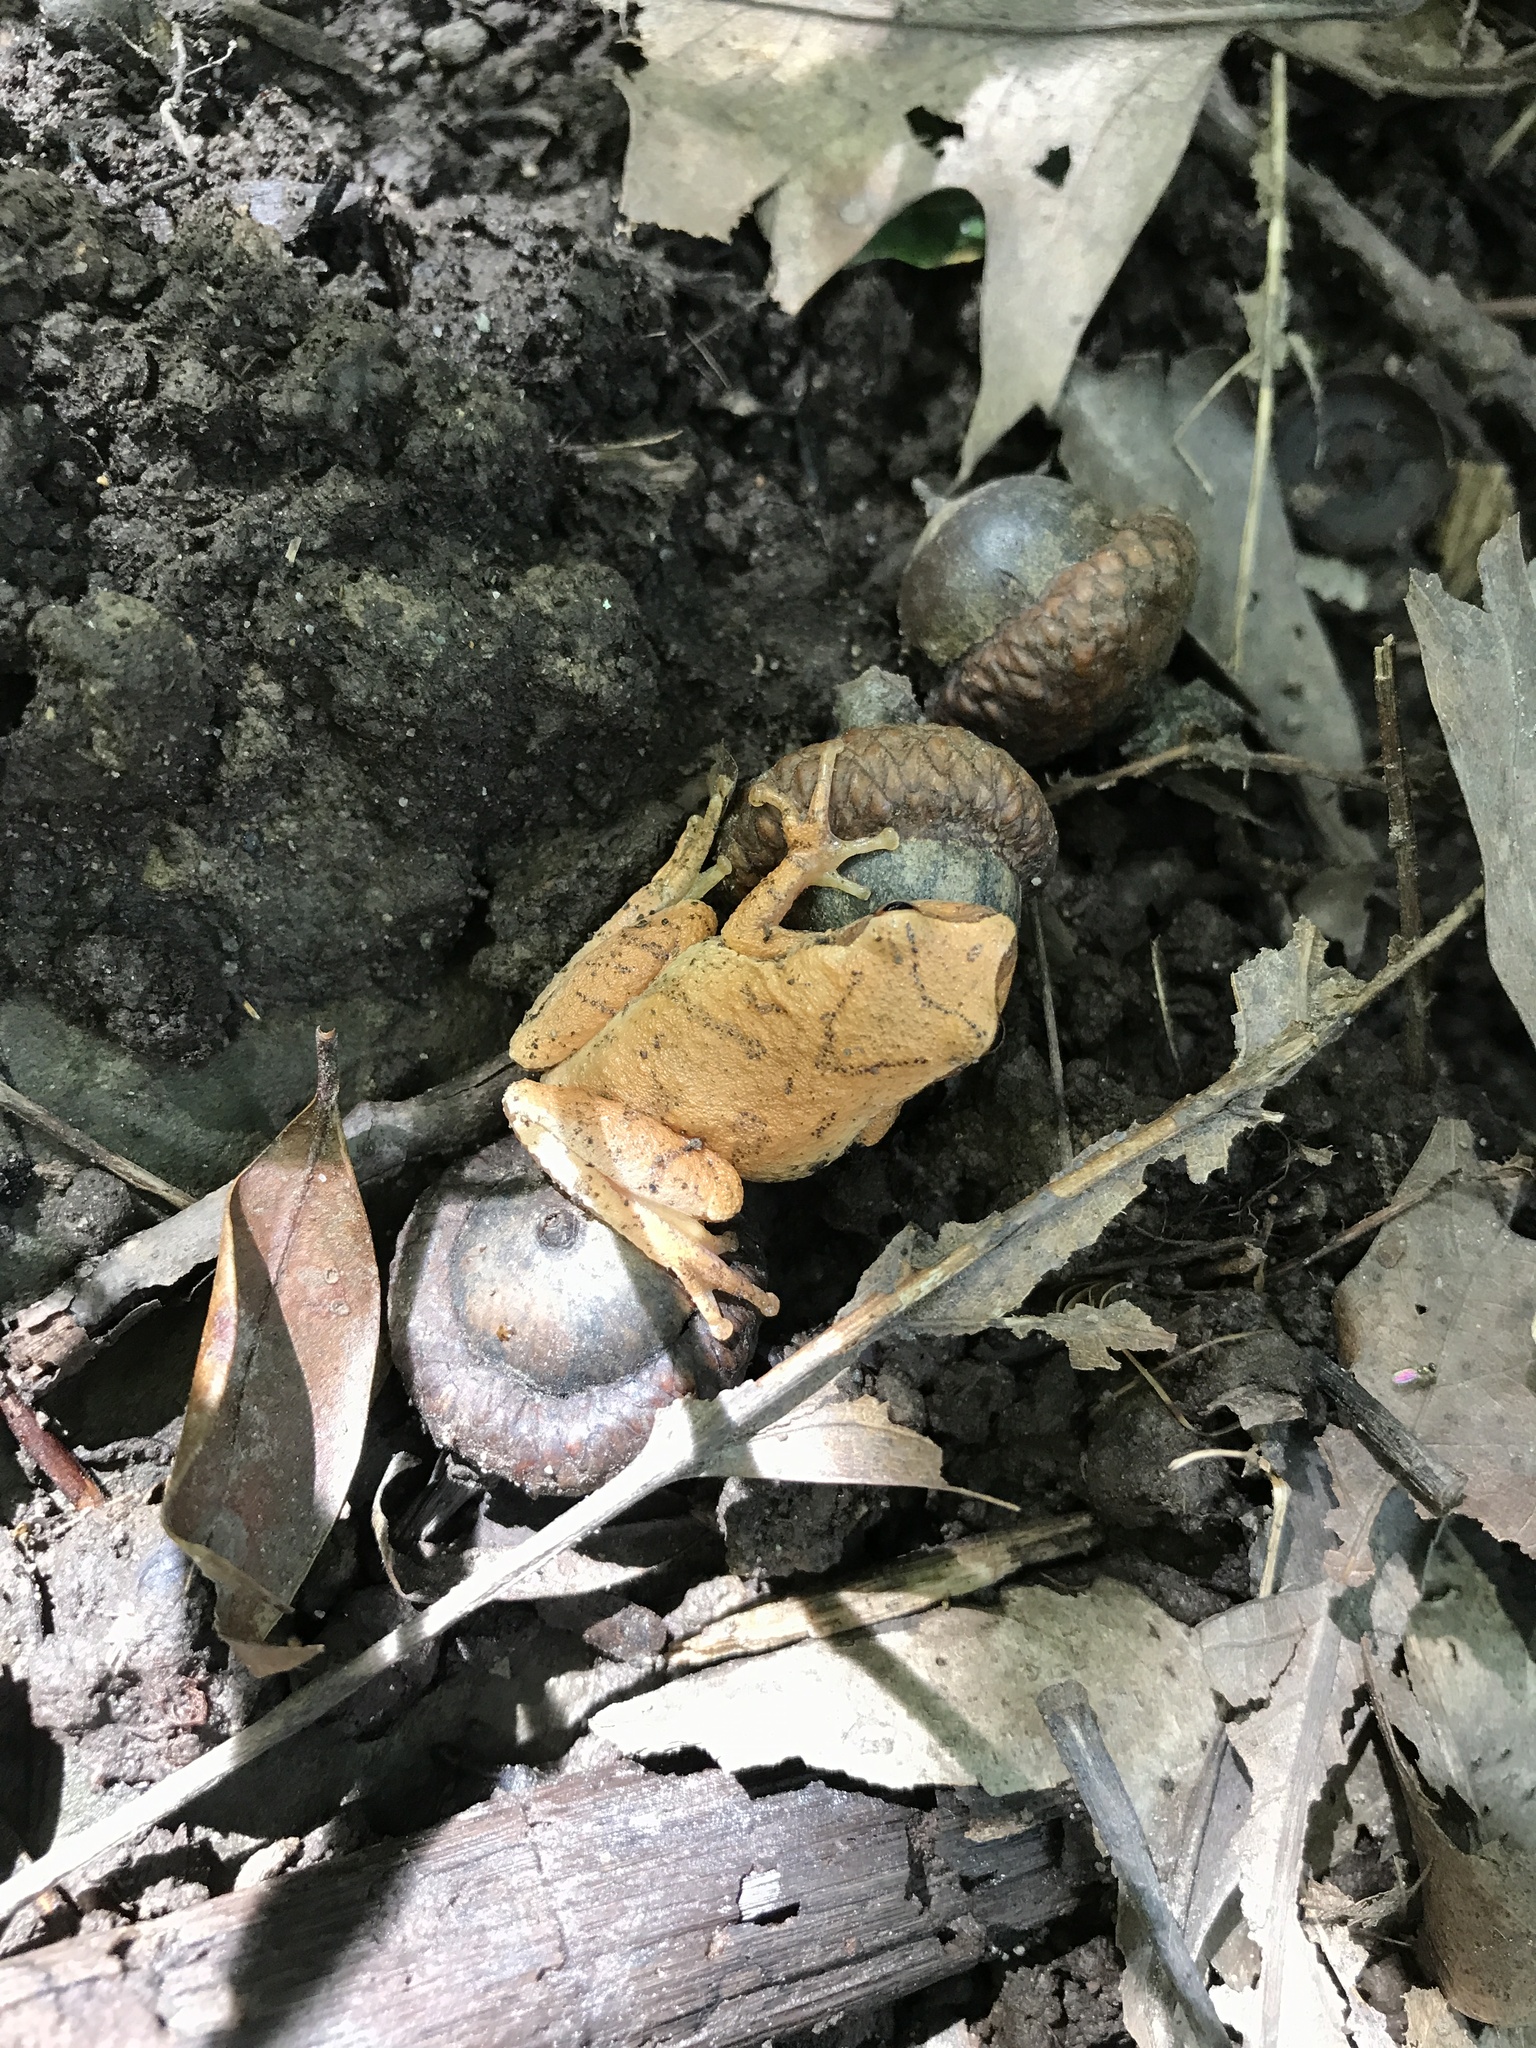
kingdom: Animalia
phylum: Chordata
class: Amphibia
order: Anura
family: Hylidae
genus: Pseudacris
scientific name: Pseudacris crucifer
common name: Spring peeper
